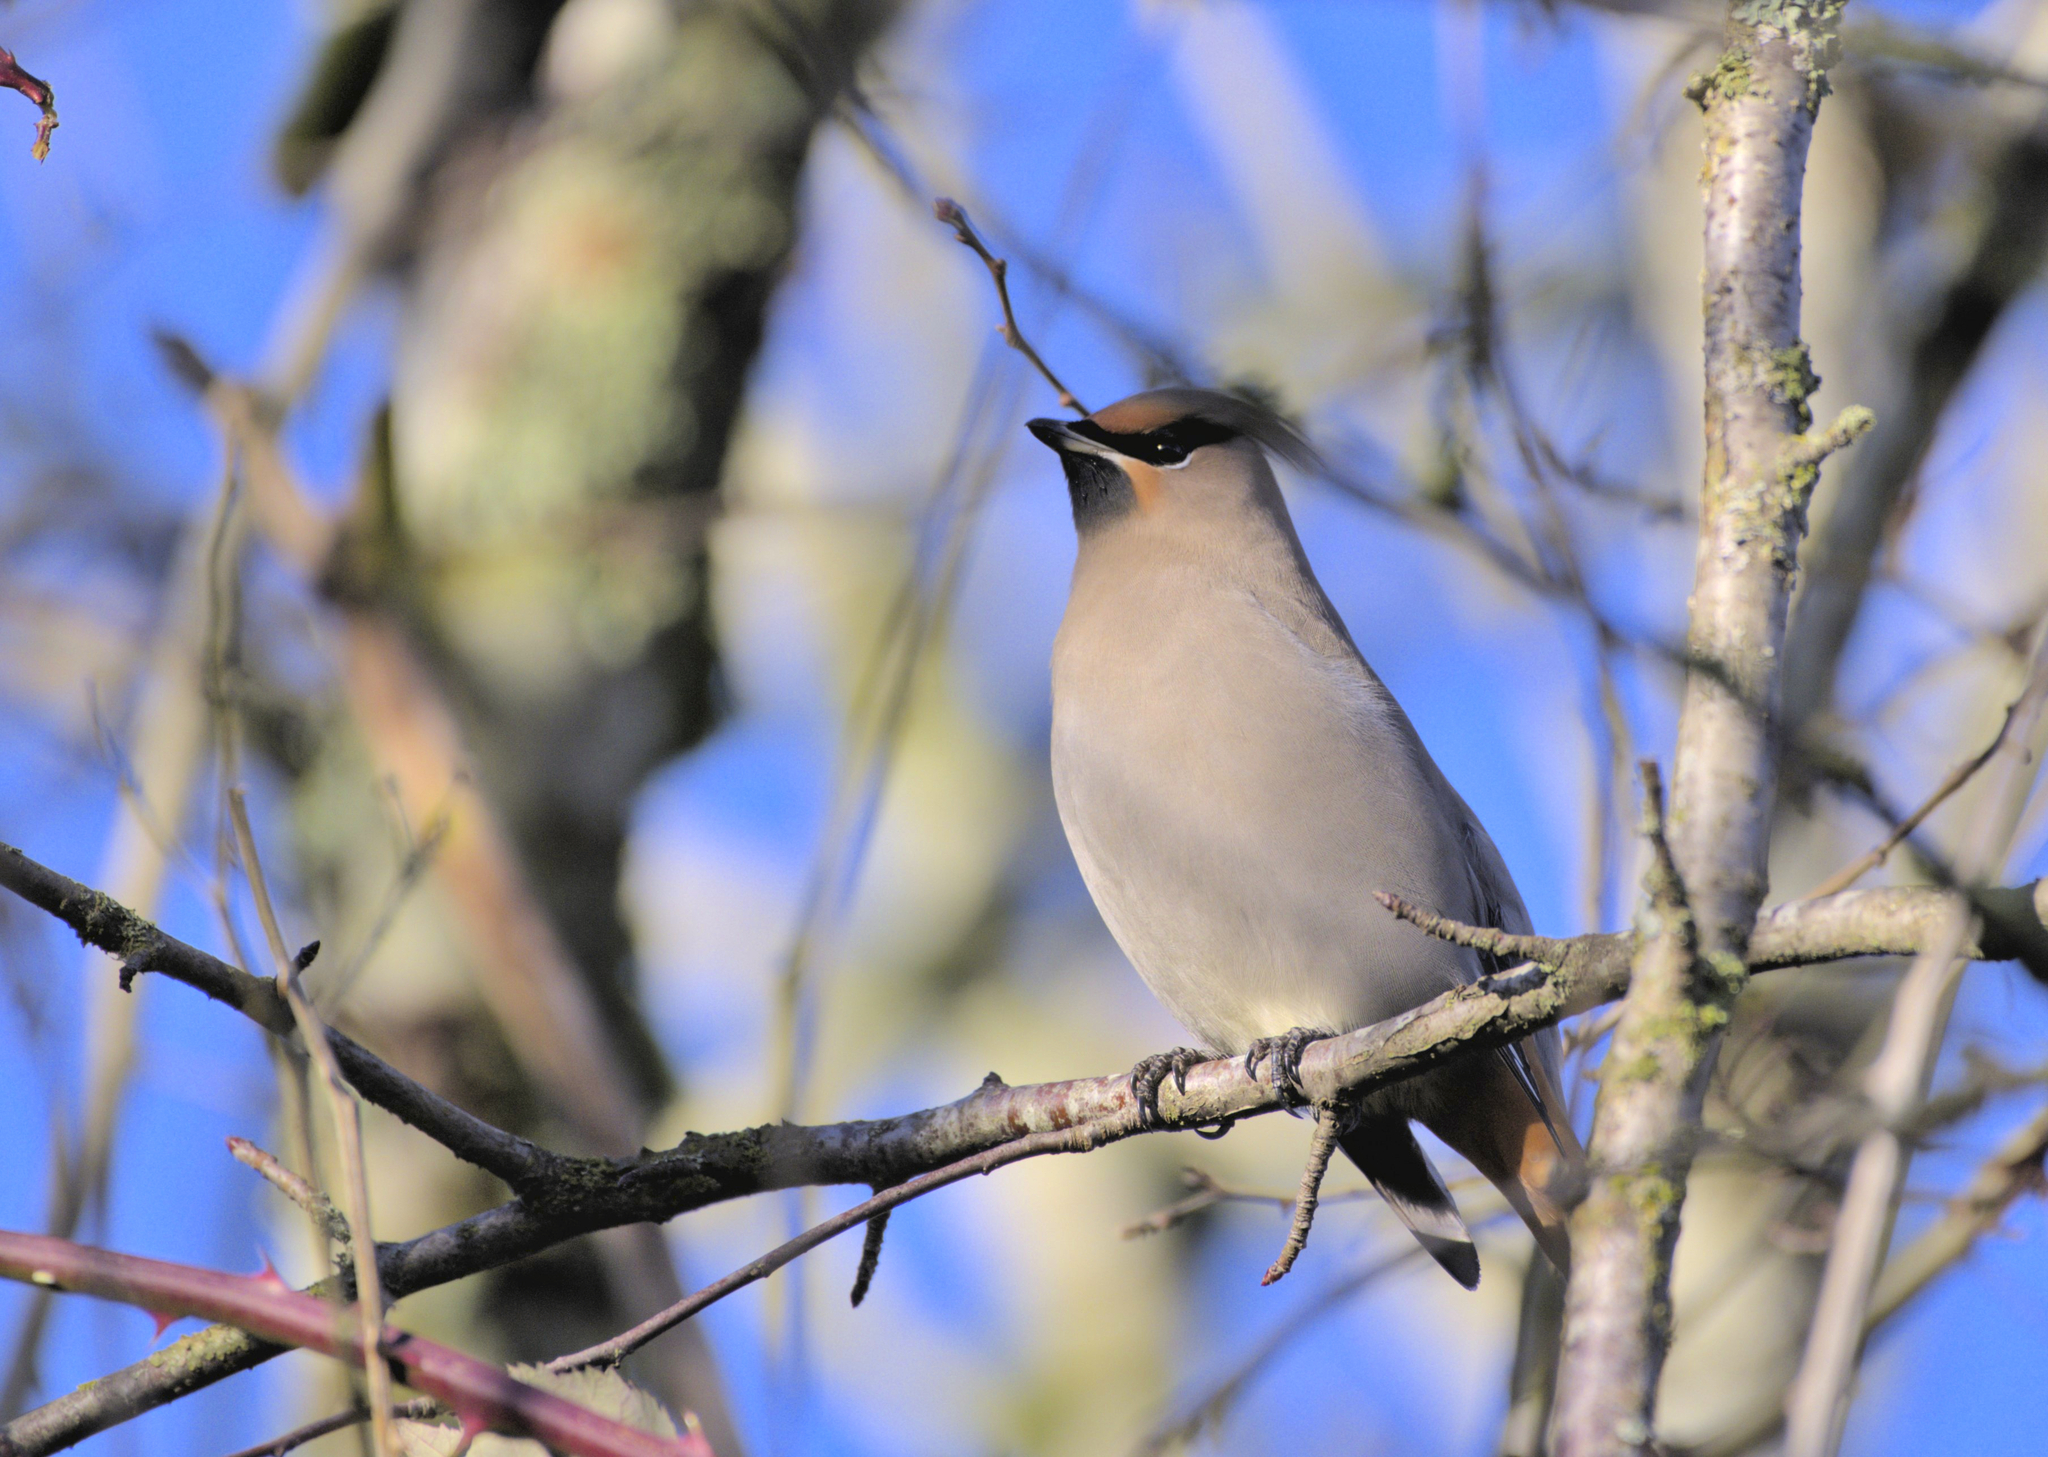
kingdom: Animalia
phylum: Chordata
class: Aves
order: Passeriformes
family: Bombycillidae
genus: Bombycilla
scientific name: Bombycilla garrulus
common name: Bohemian waxwing
